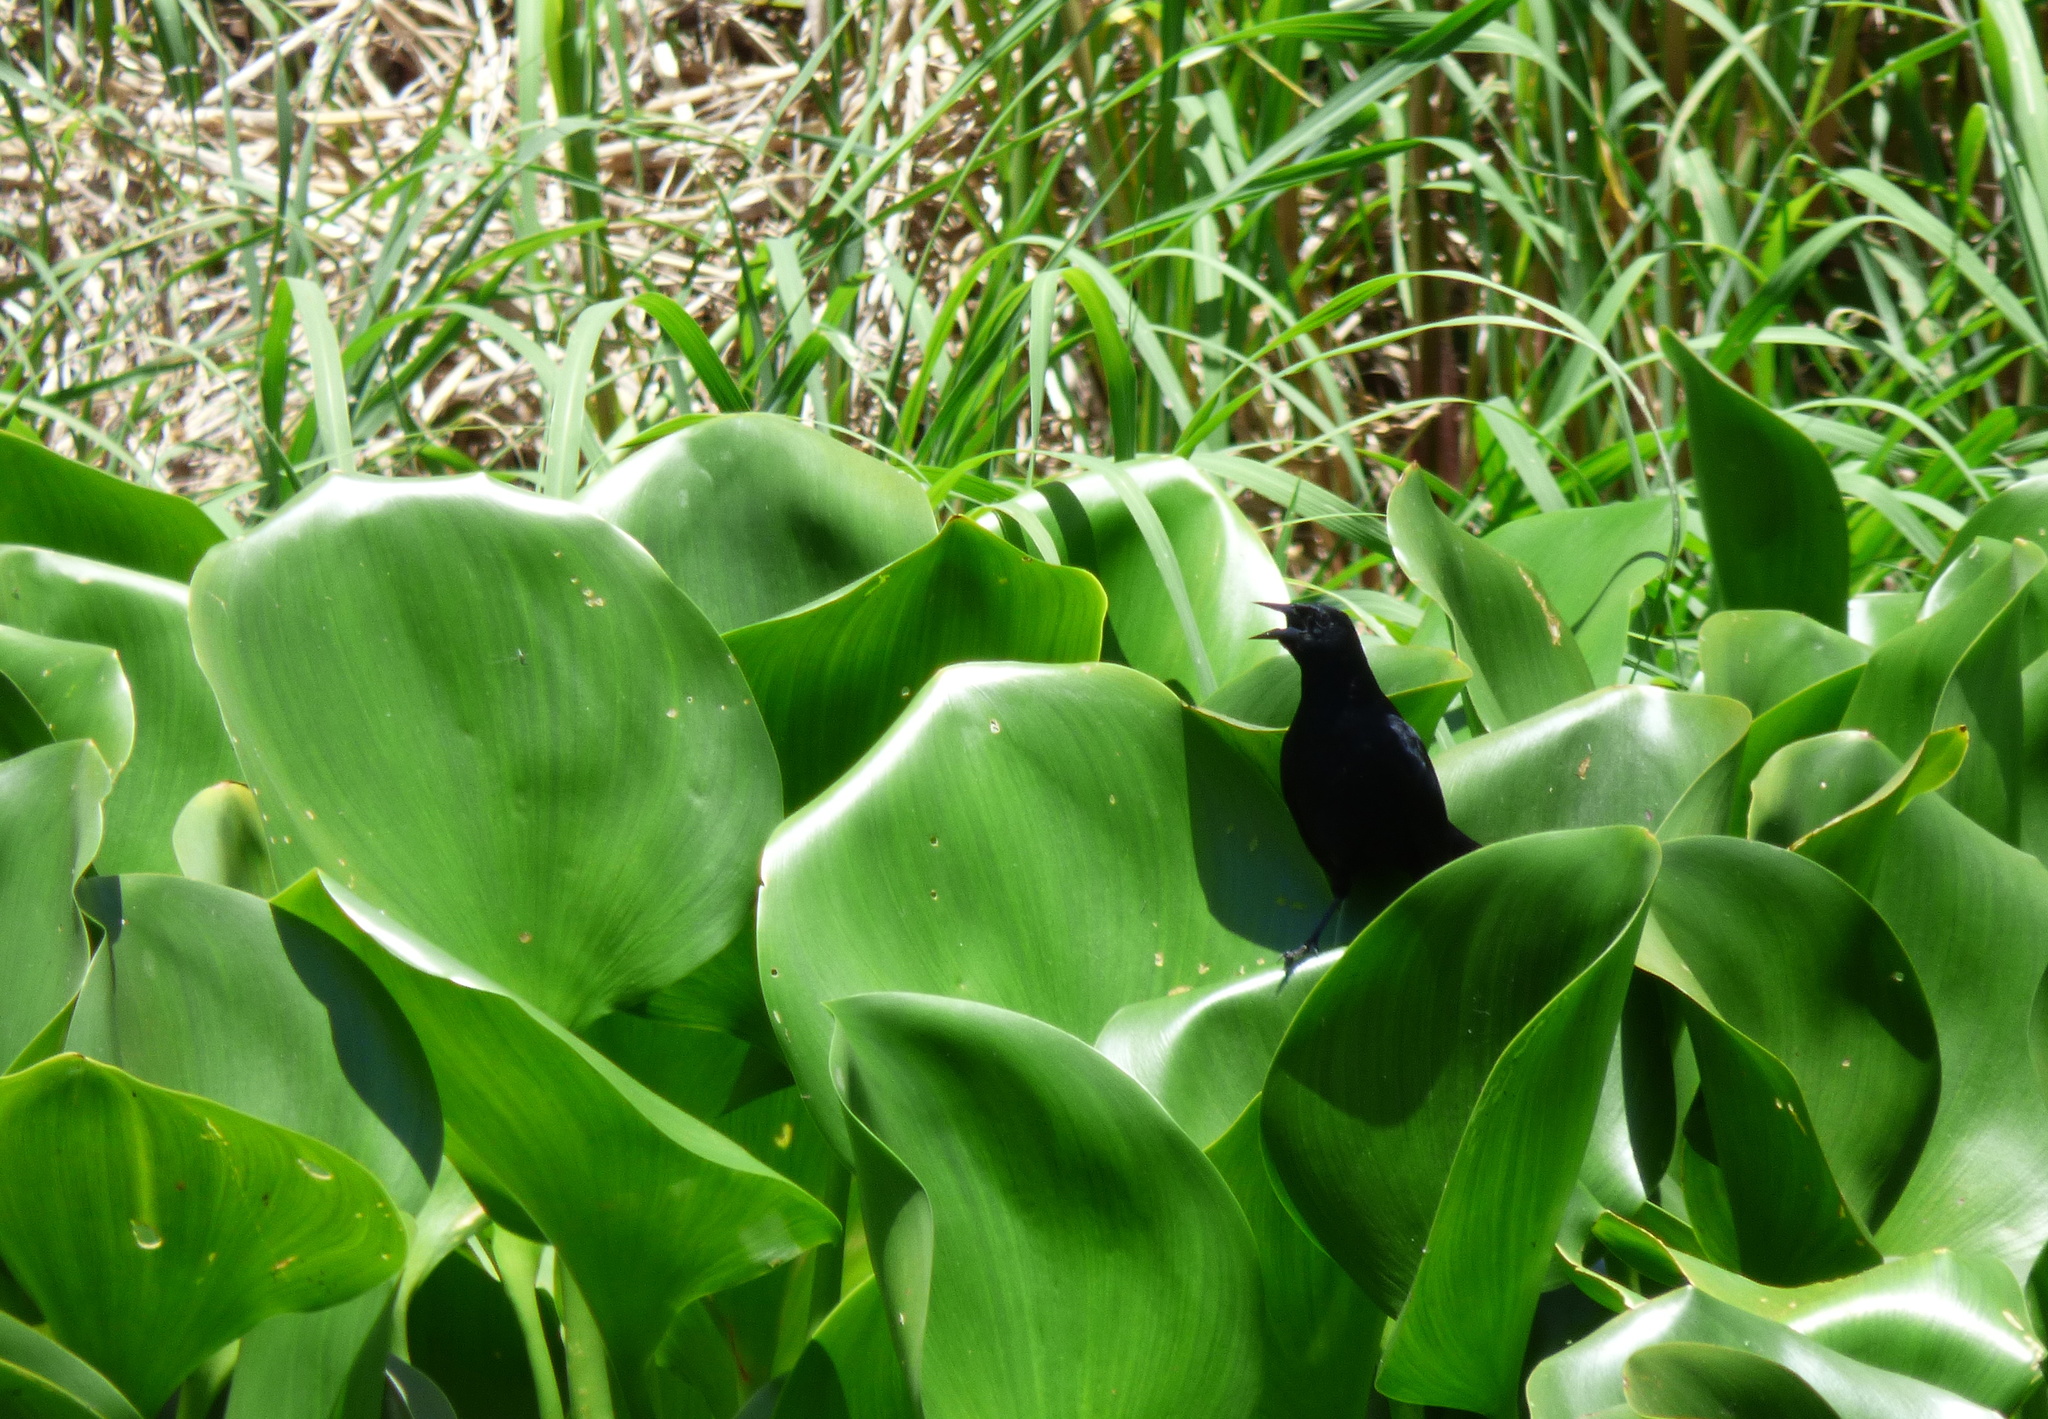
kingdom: Animalia
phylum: Chordata
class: Aves
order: Passeriformes
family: Icteridae
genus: Agelasticus
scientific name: Agelasticus cyanopus
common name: Unicolored blackbird
